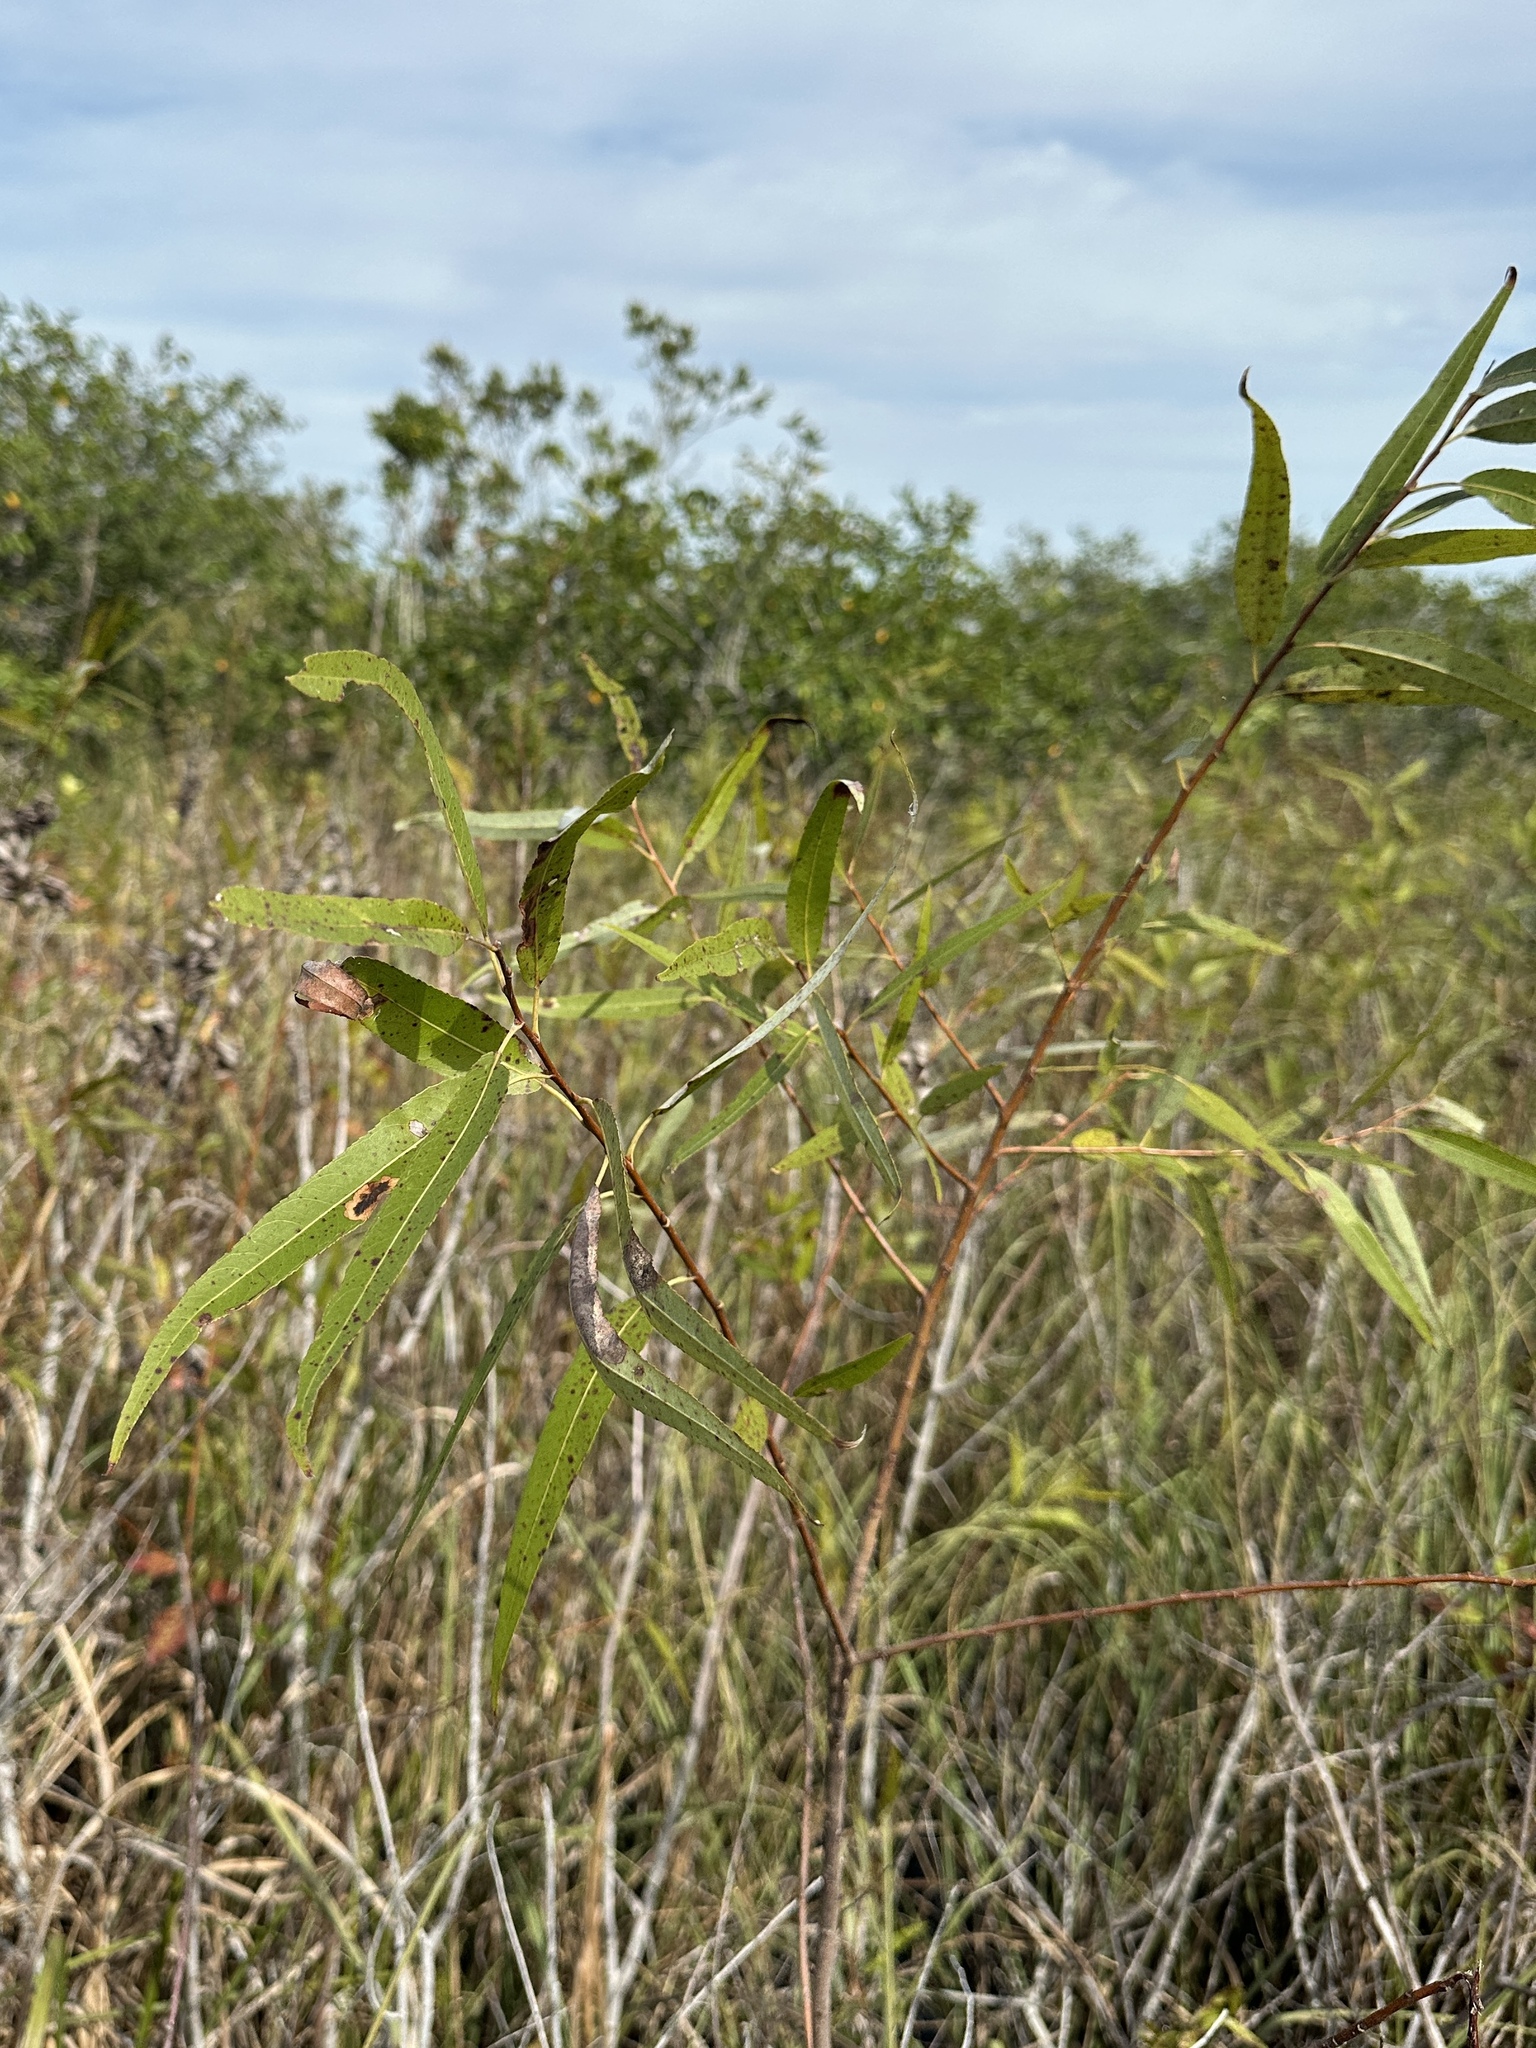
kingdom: Plantae
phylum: Tracheophyta
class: Magnoliopsida
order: Malpighiales
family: Salicaceae
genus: Salix
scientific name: Salix caroliniana
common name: Carolina willow
